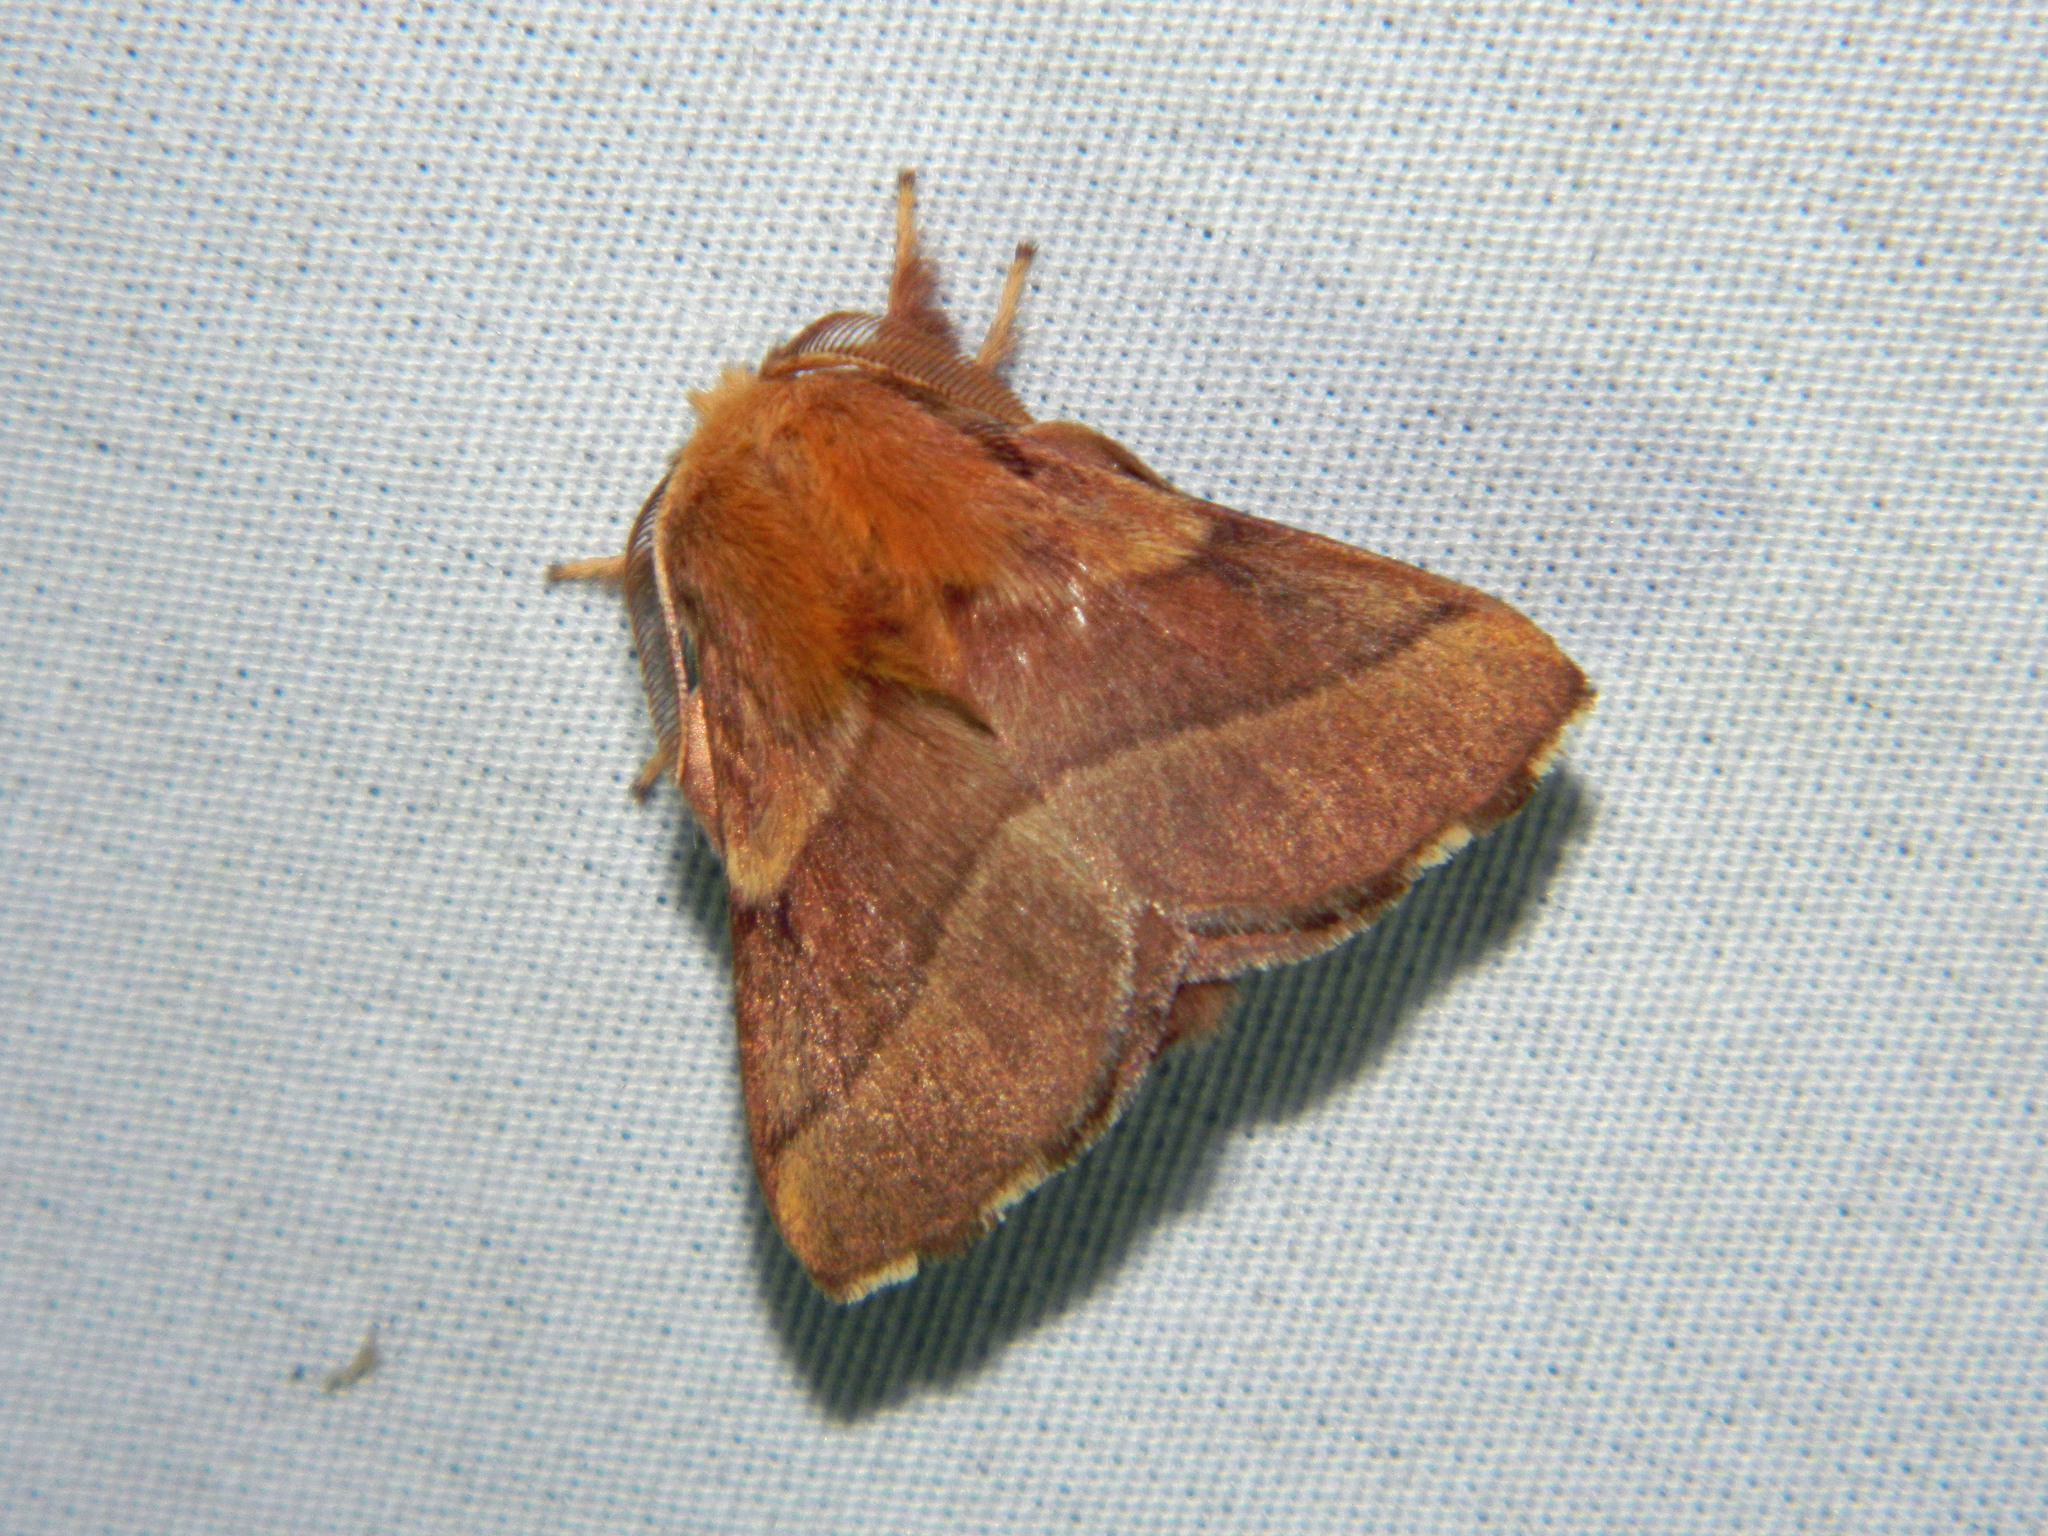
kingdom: Animalia
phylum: Arthropoda
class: Insecta
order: Lepidoptera
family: Lasiocampidae
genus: Malacosoma
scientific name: Malacosoma disstria
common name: Forest tent caterpillar
